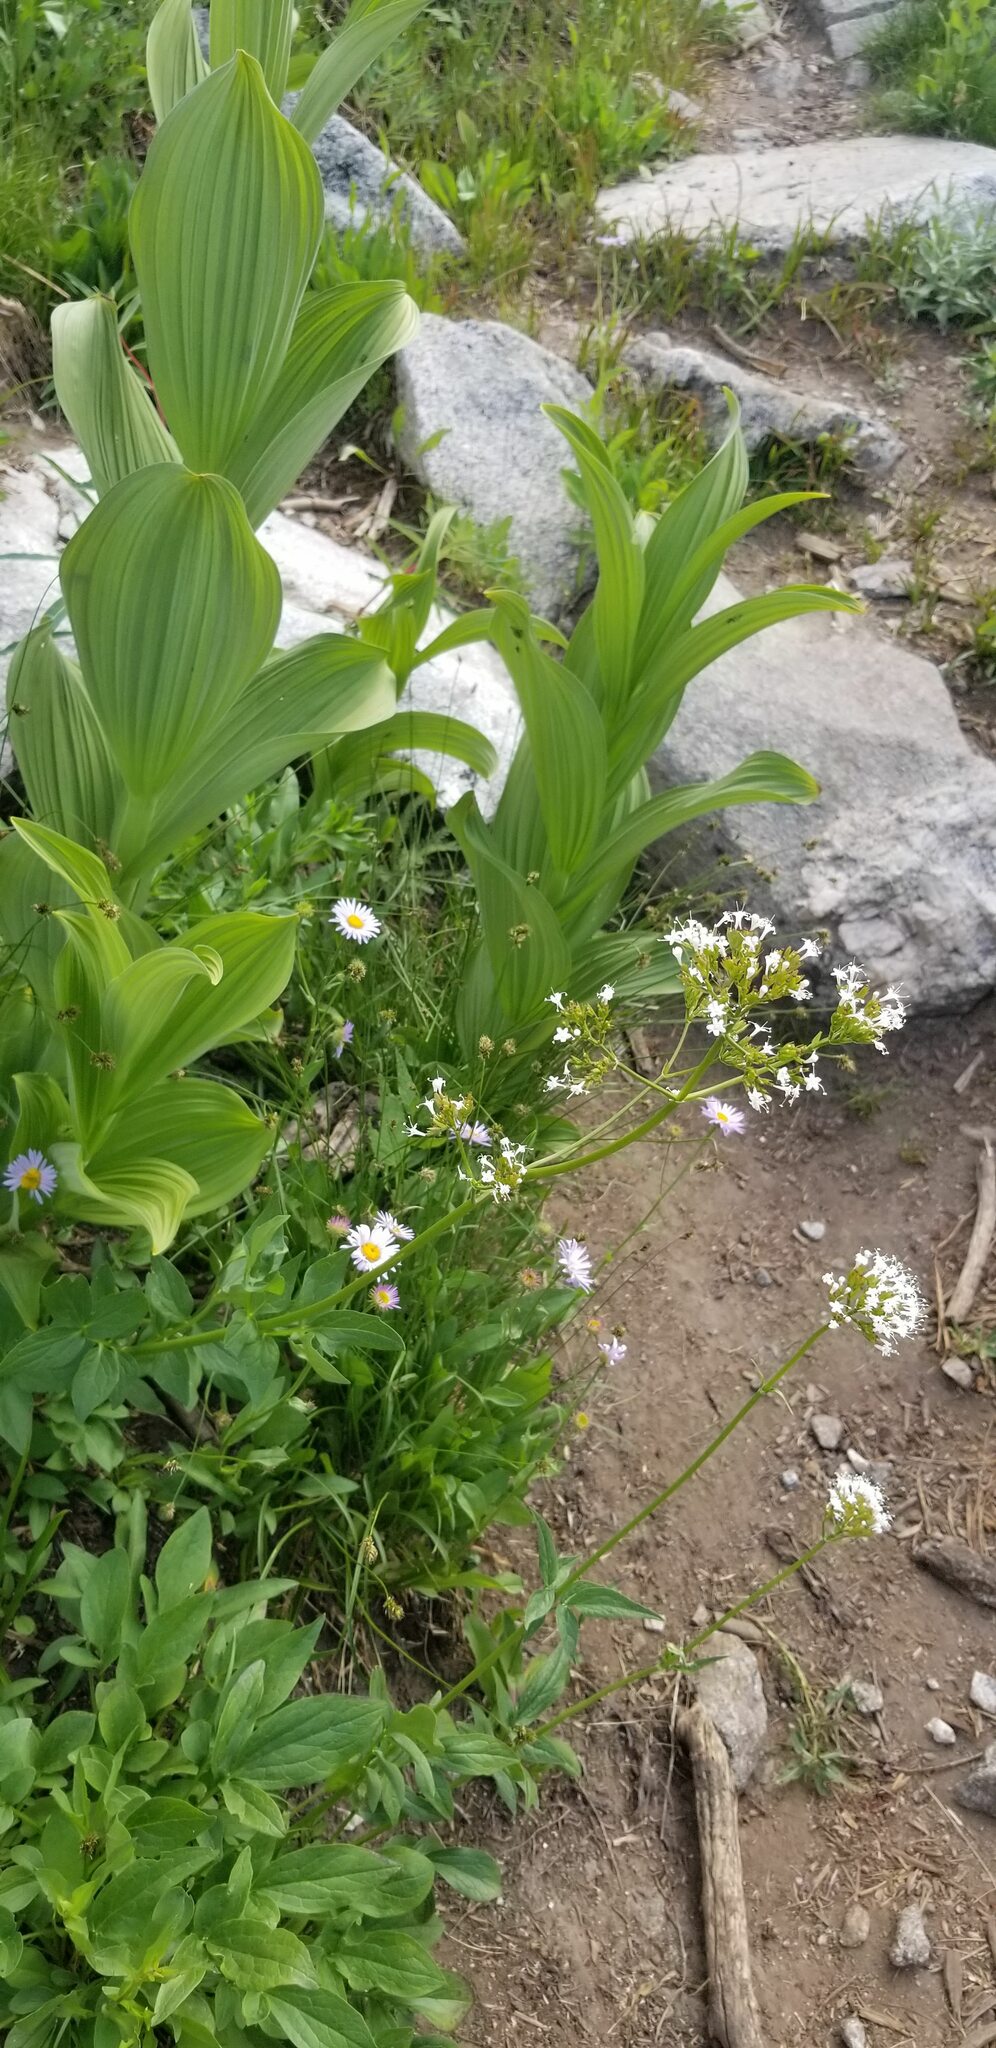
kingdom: Plantae
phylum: Tracheophyta
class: Magnoliopsida
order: Dipsacales
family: Caprifoliaceae
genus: Valeriana
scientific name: Valeriana sitchensis
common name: Pacific valerian
